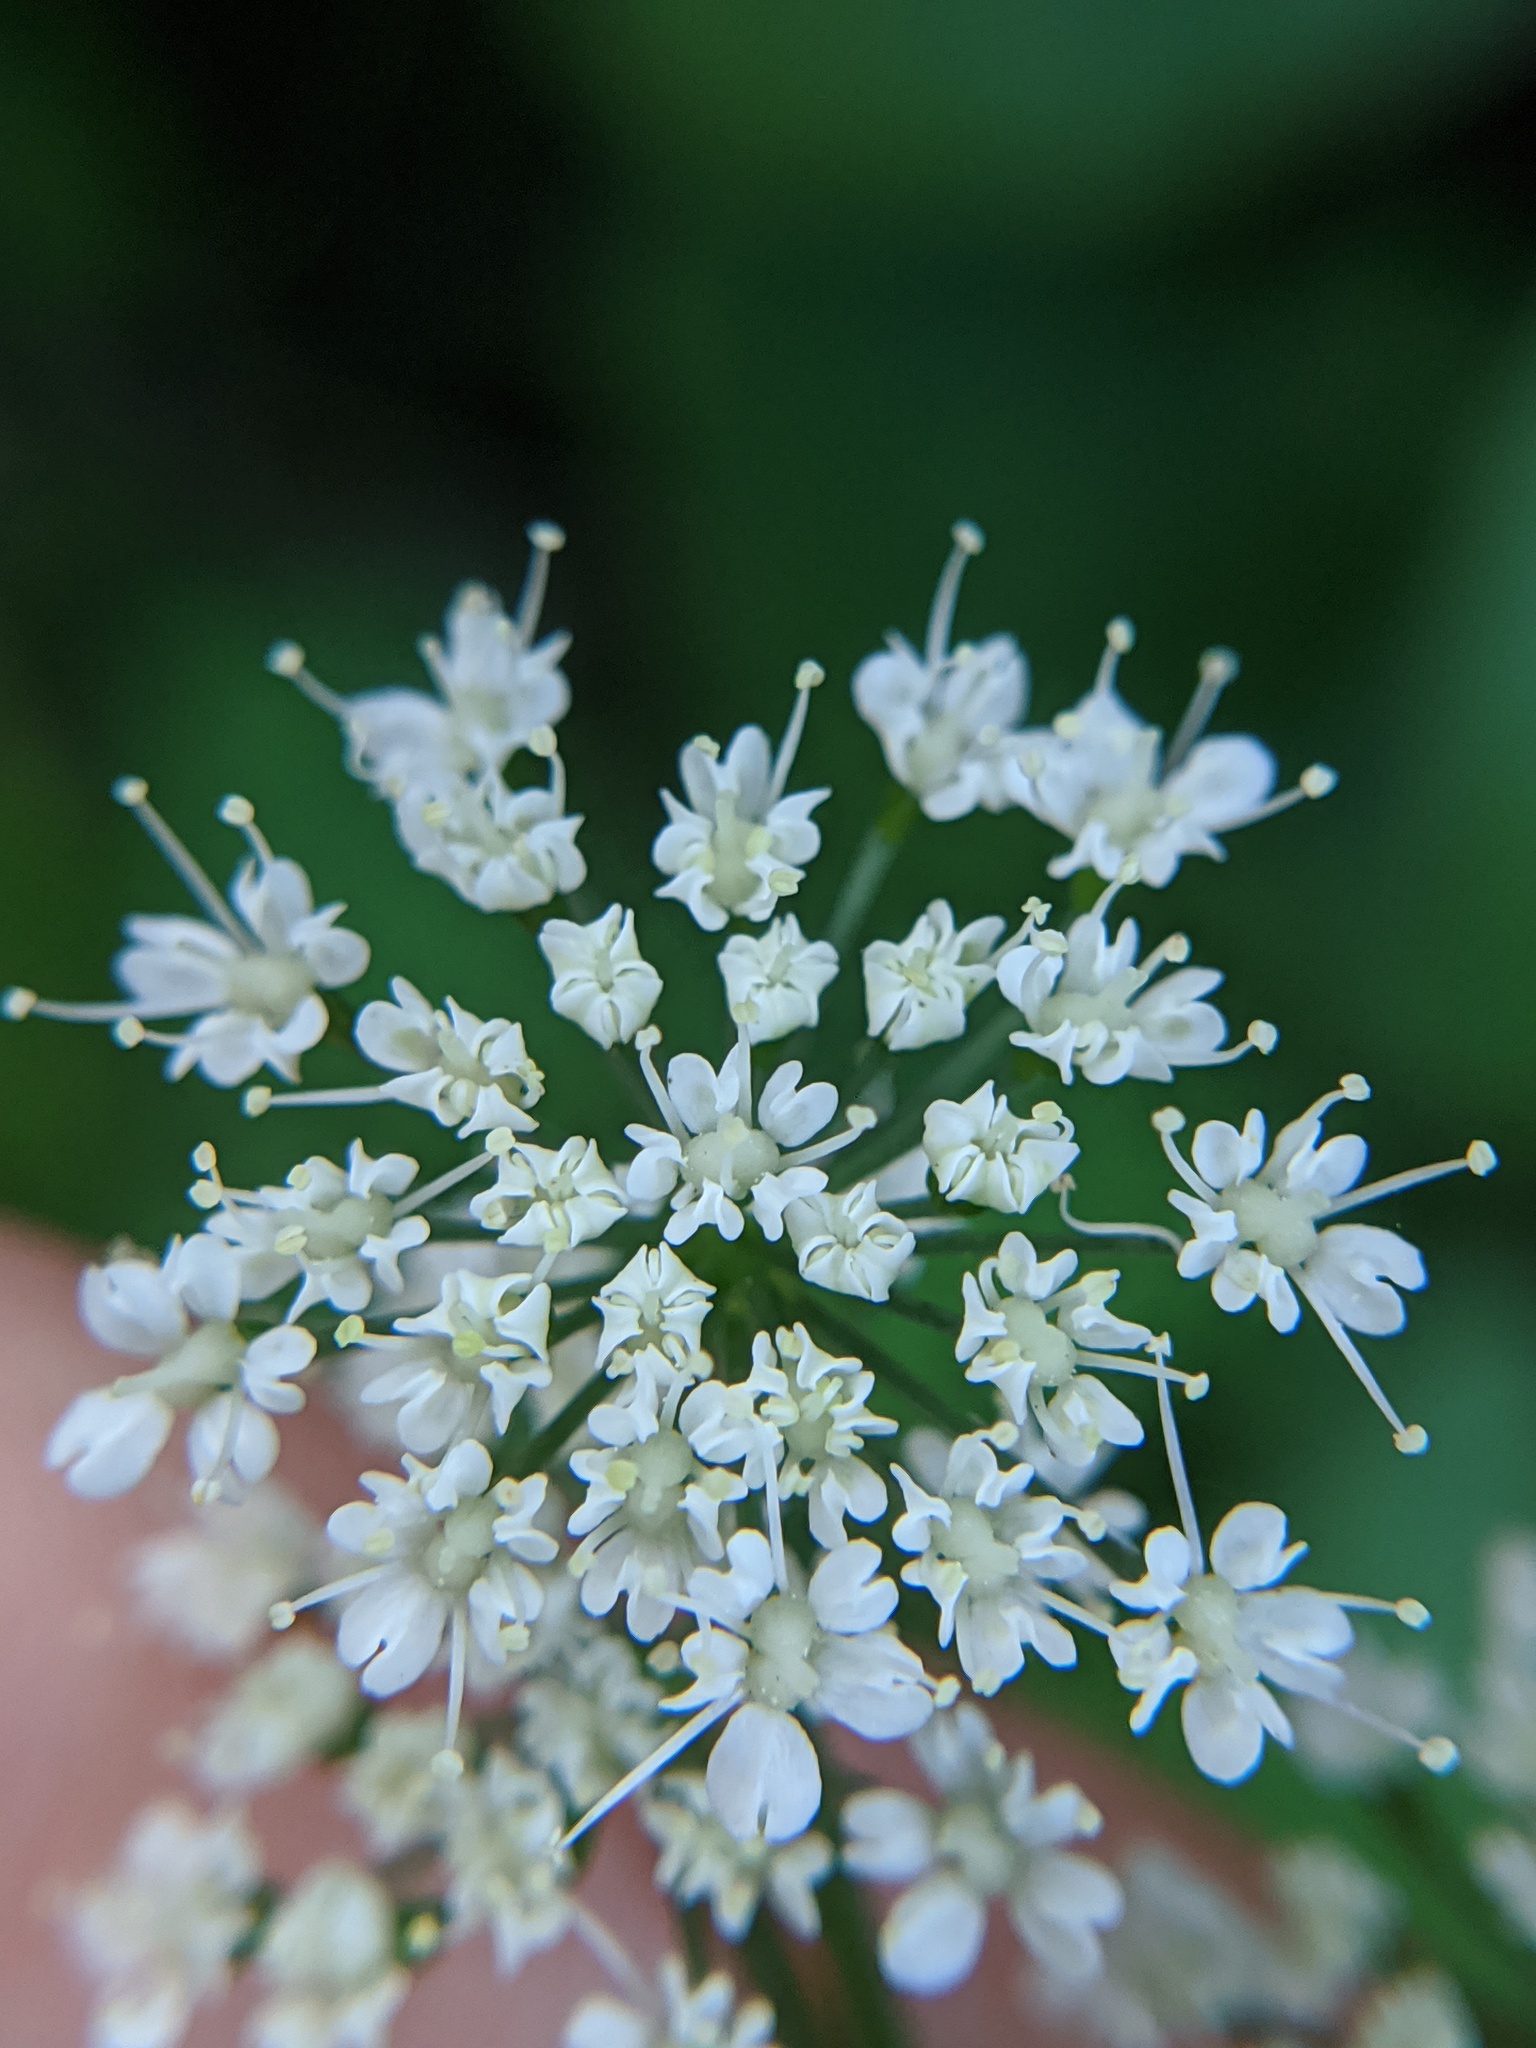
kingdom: Plantae
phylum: Tracheophyta
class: Magnoliopsida
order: Apiales
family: Apiaceae
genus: Aegopodium
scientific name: Aegopodium podagraria
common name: Ground-elder
